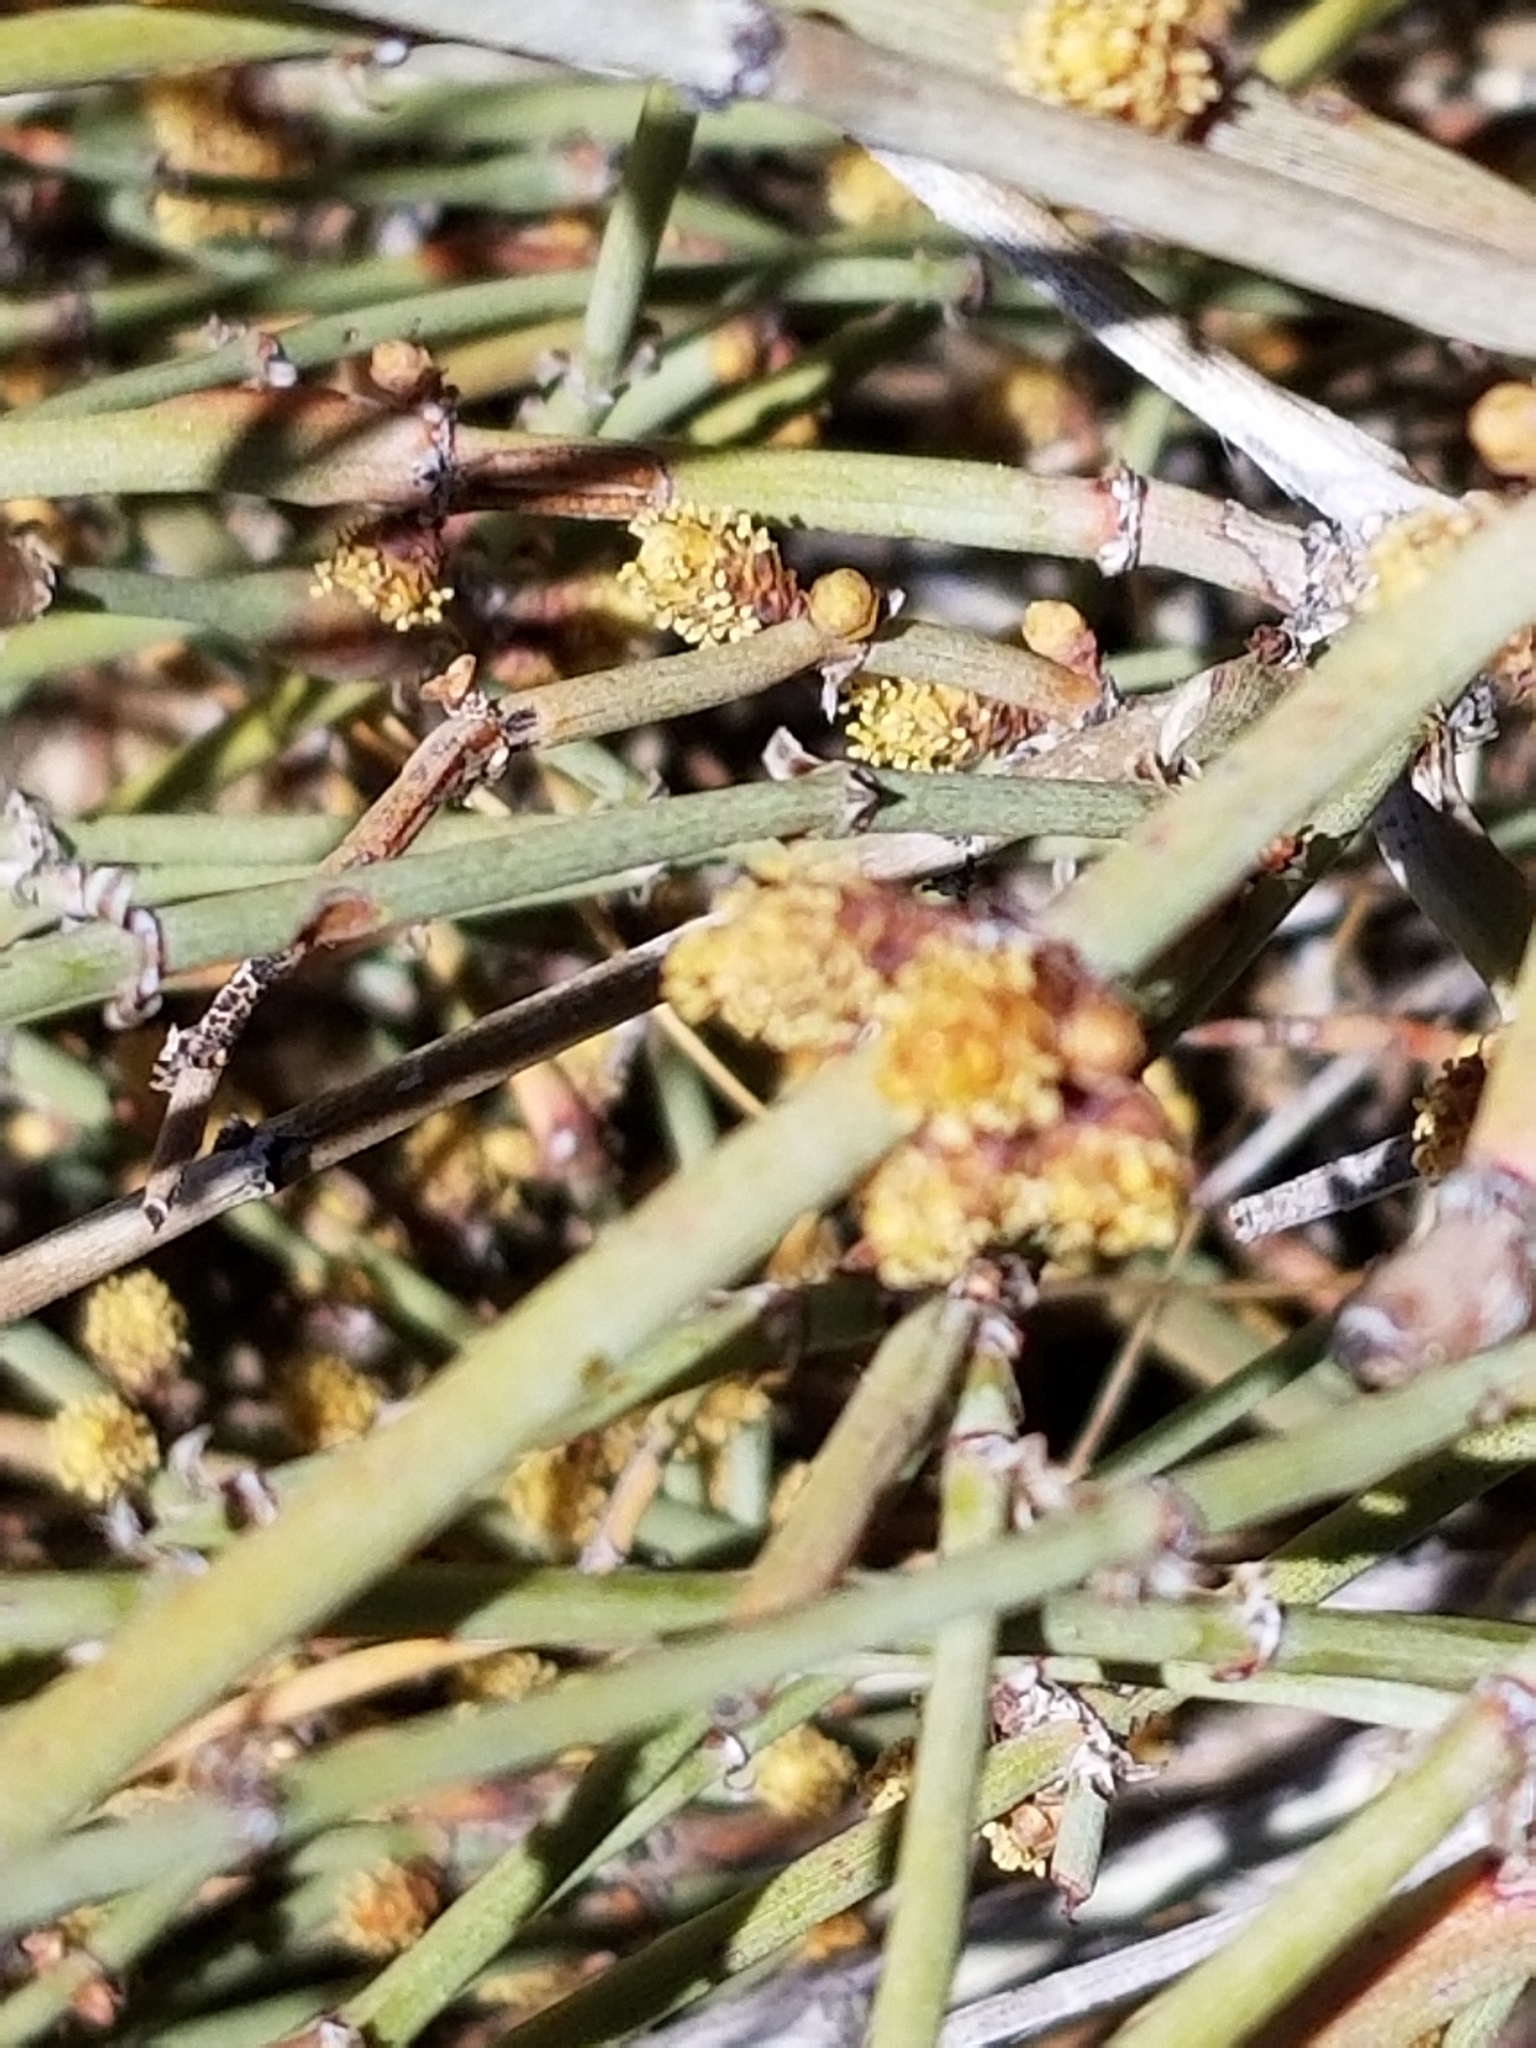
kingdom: Plantae
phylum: Tracheophyta
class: Gnetopsida
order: Ephedrales
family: Ephedraceae
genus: Ephedra
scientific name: Ephedra californica
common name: California ephedra
